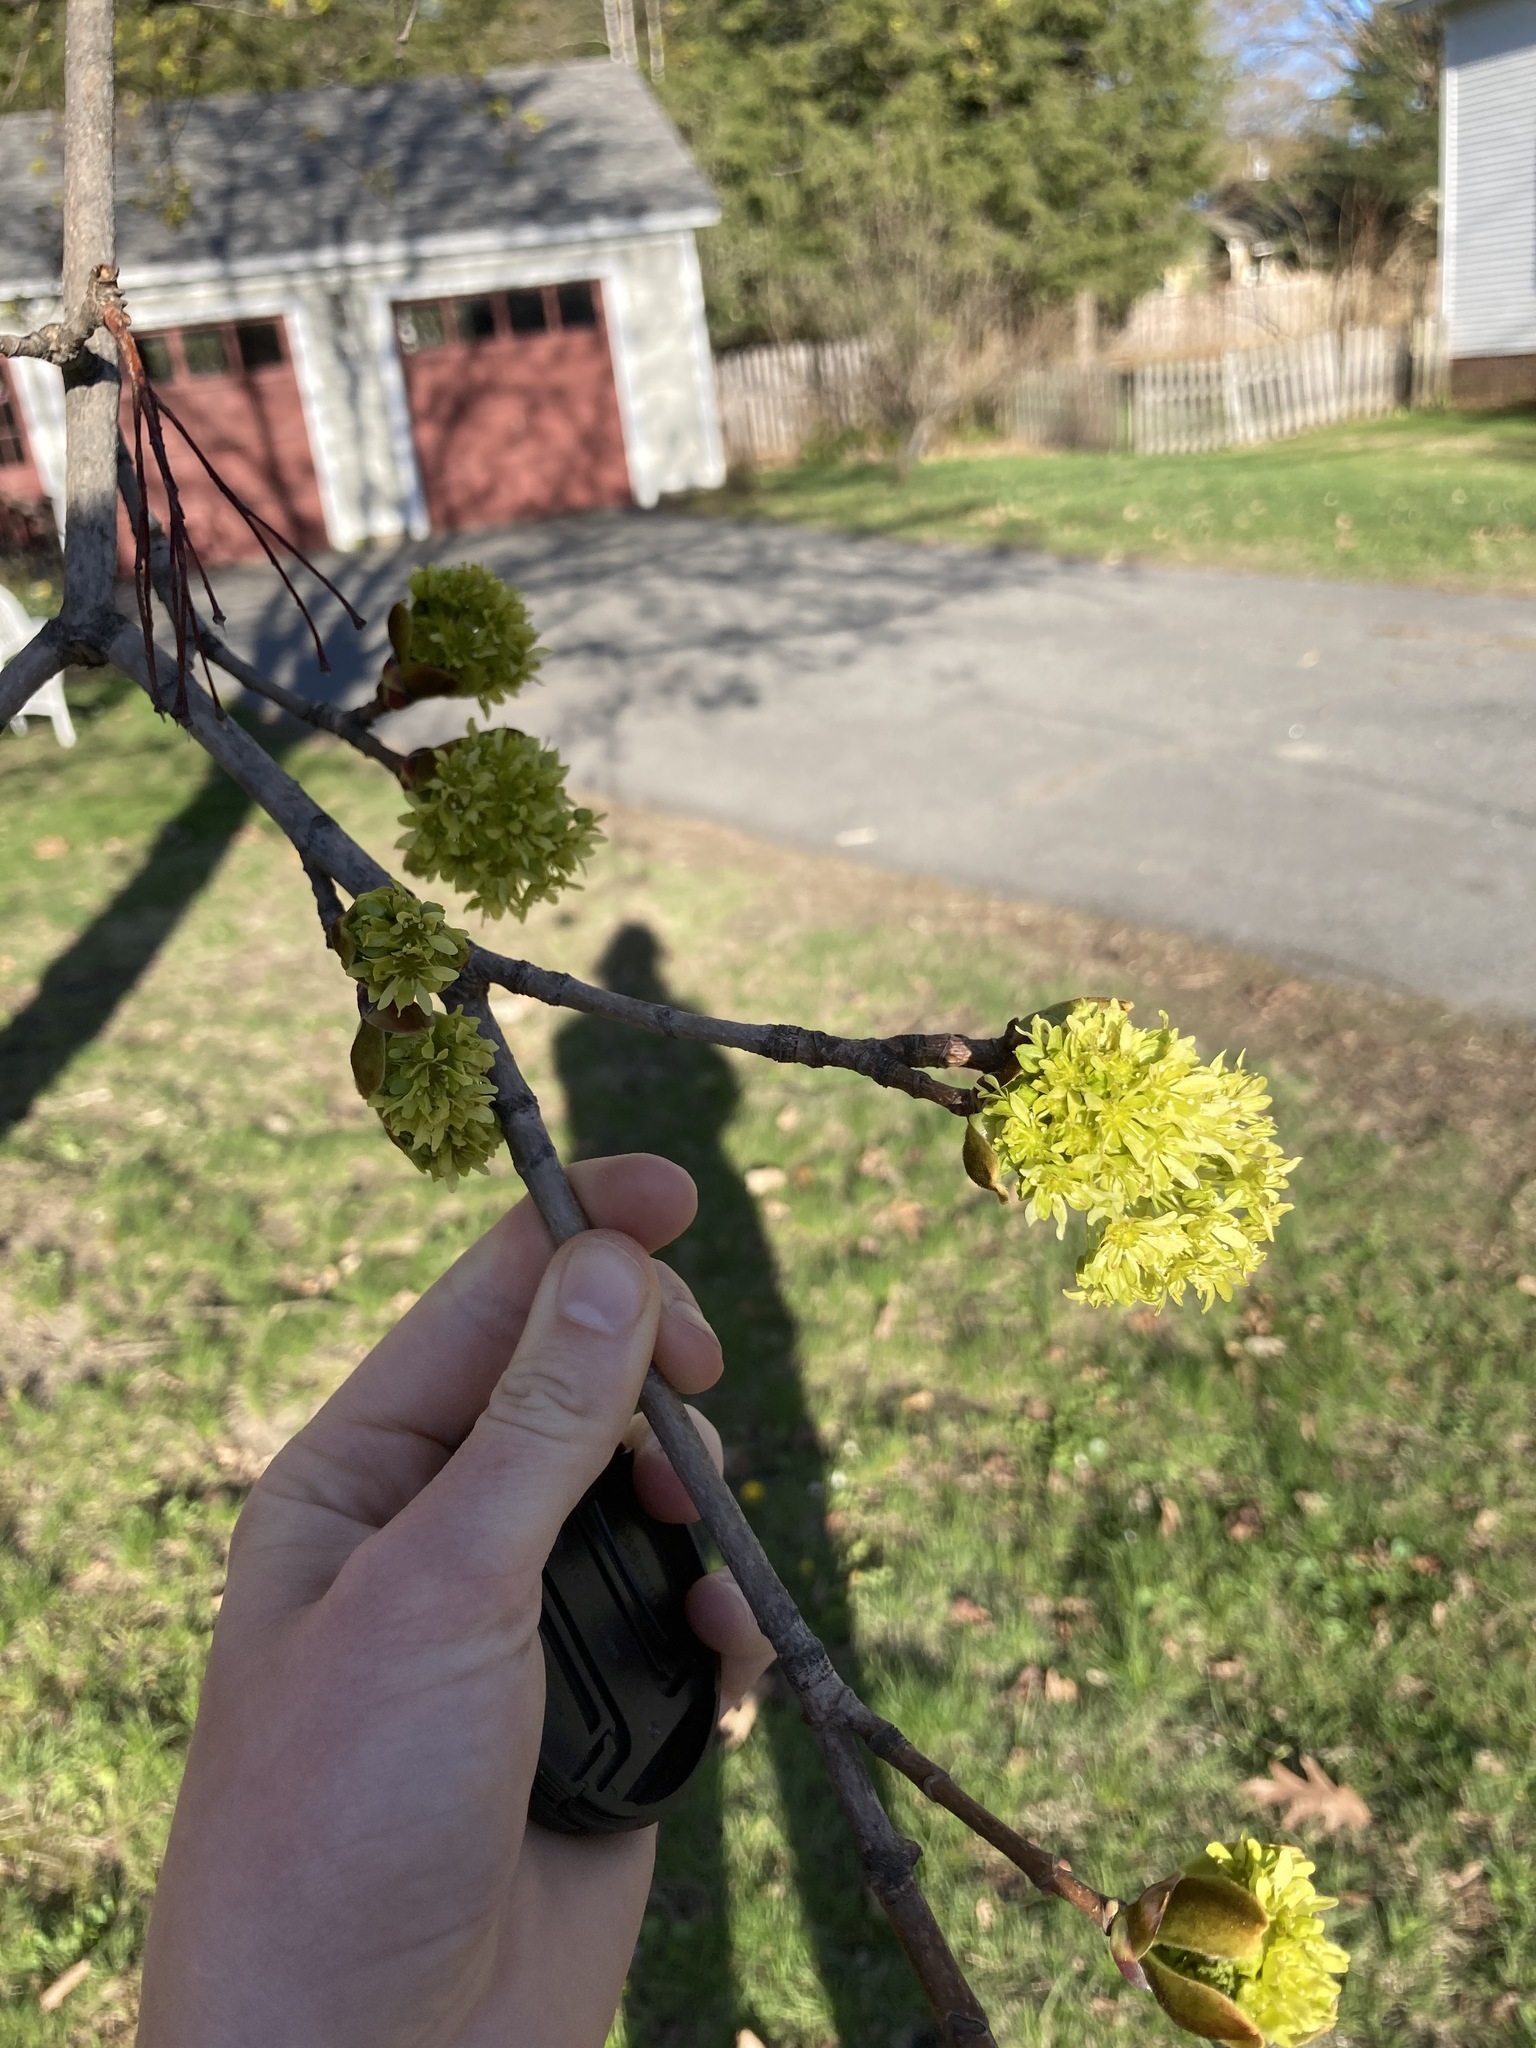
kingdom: Plantae
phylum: Tracheophyta
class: Magnoliopsida
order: Sapindales
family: Sapindaceae
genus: Acer
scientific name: Acer platanoides
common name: Norway maple
